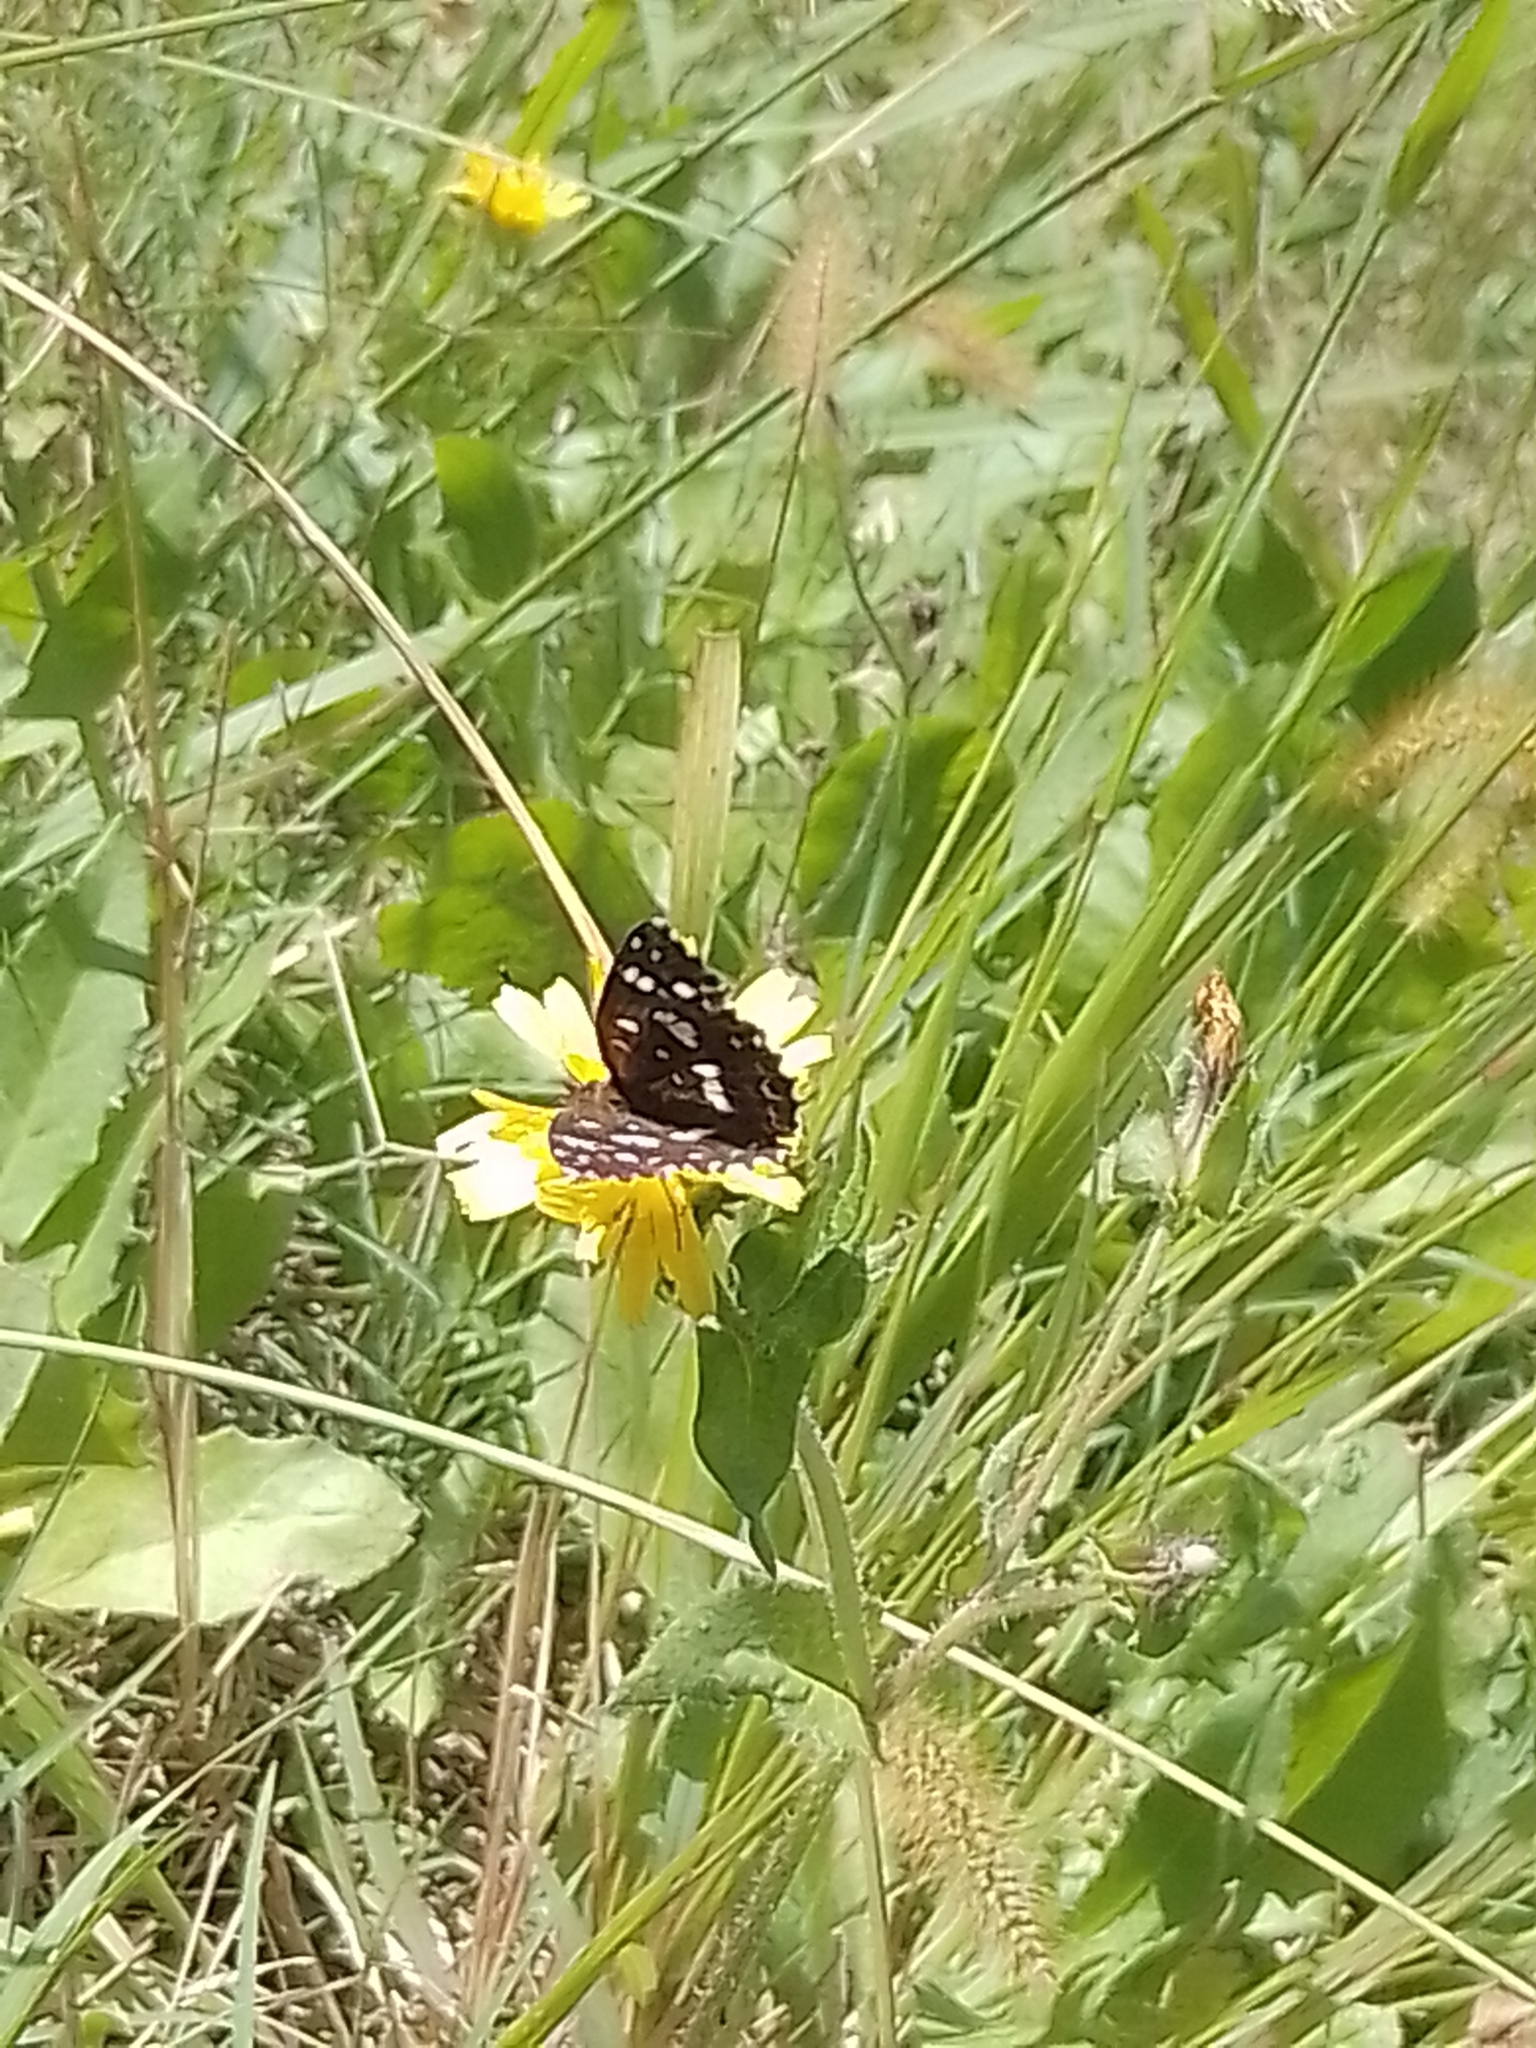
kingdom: Animalia
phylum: Arthropoda
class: Insecta
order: Lepidoptera
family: Nymphalidae
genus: Ortilia
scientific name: Ortilia ithra
